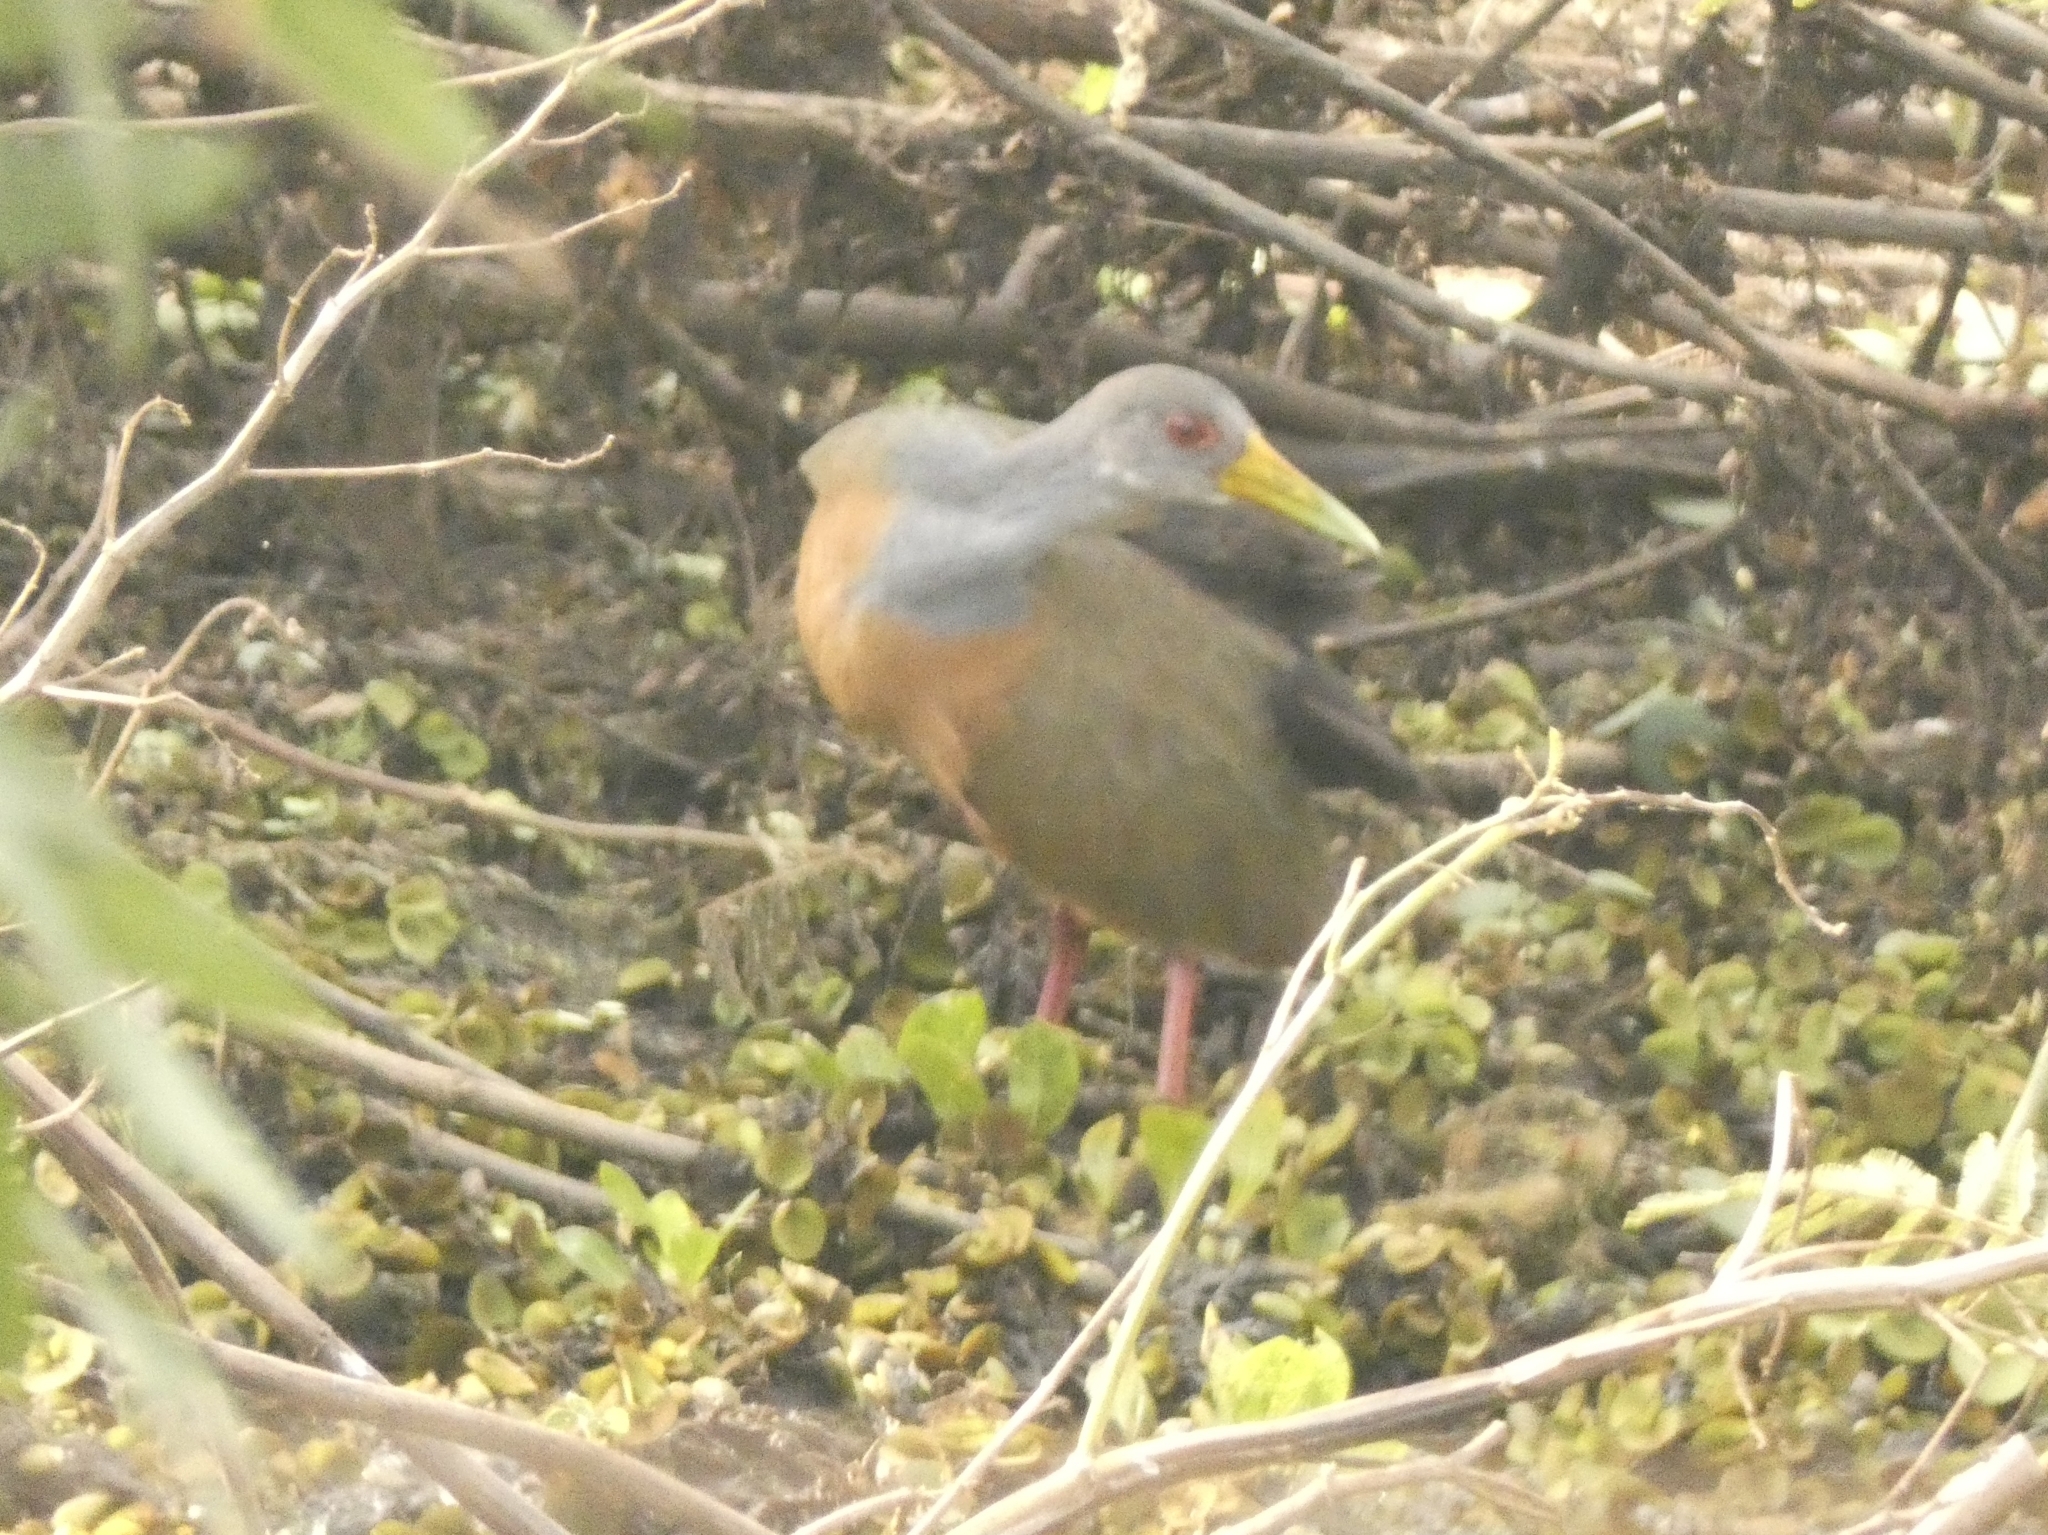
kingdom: Animalia
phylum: Chordata
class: Aves
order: Gruiformes
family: Rallidae
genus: Aramides
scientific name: Aramides cajanea
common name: Gray-necked wood-rail
